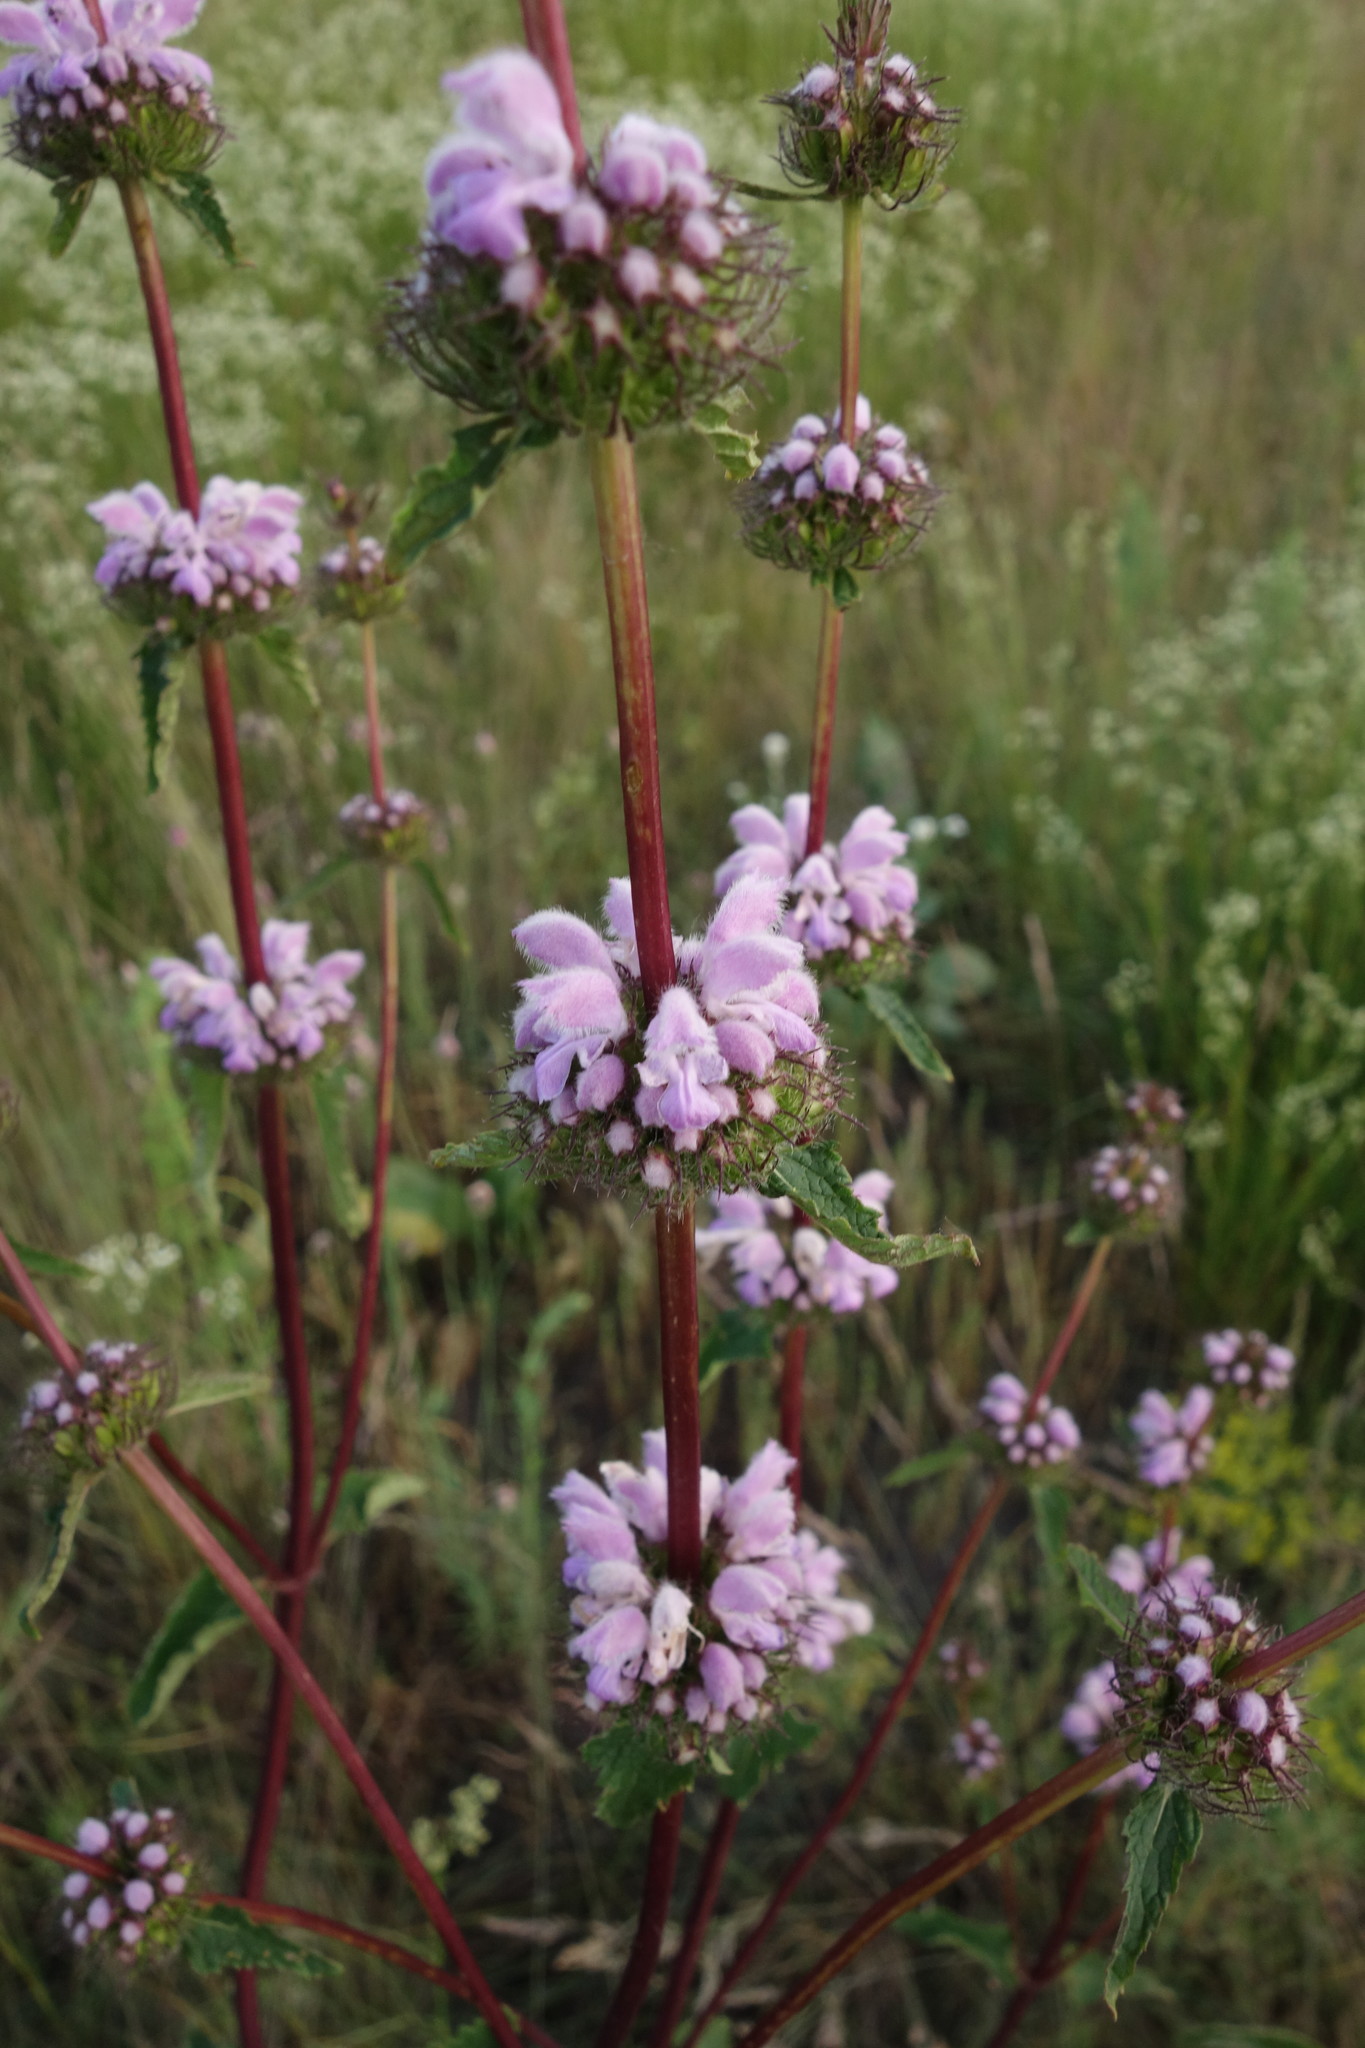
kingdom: Plantae
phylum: Tracheophyta
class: Magnoliopsida
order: Lamiales
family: Lamiaceae
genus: Phlomoides
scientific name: Phlomoides tuberosa
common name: Tuberous jerusalem sage
